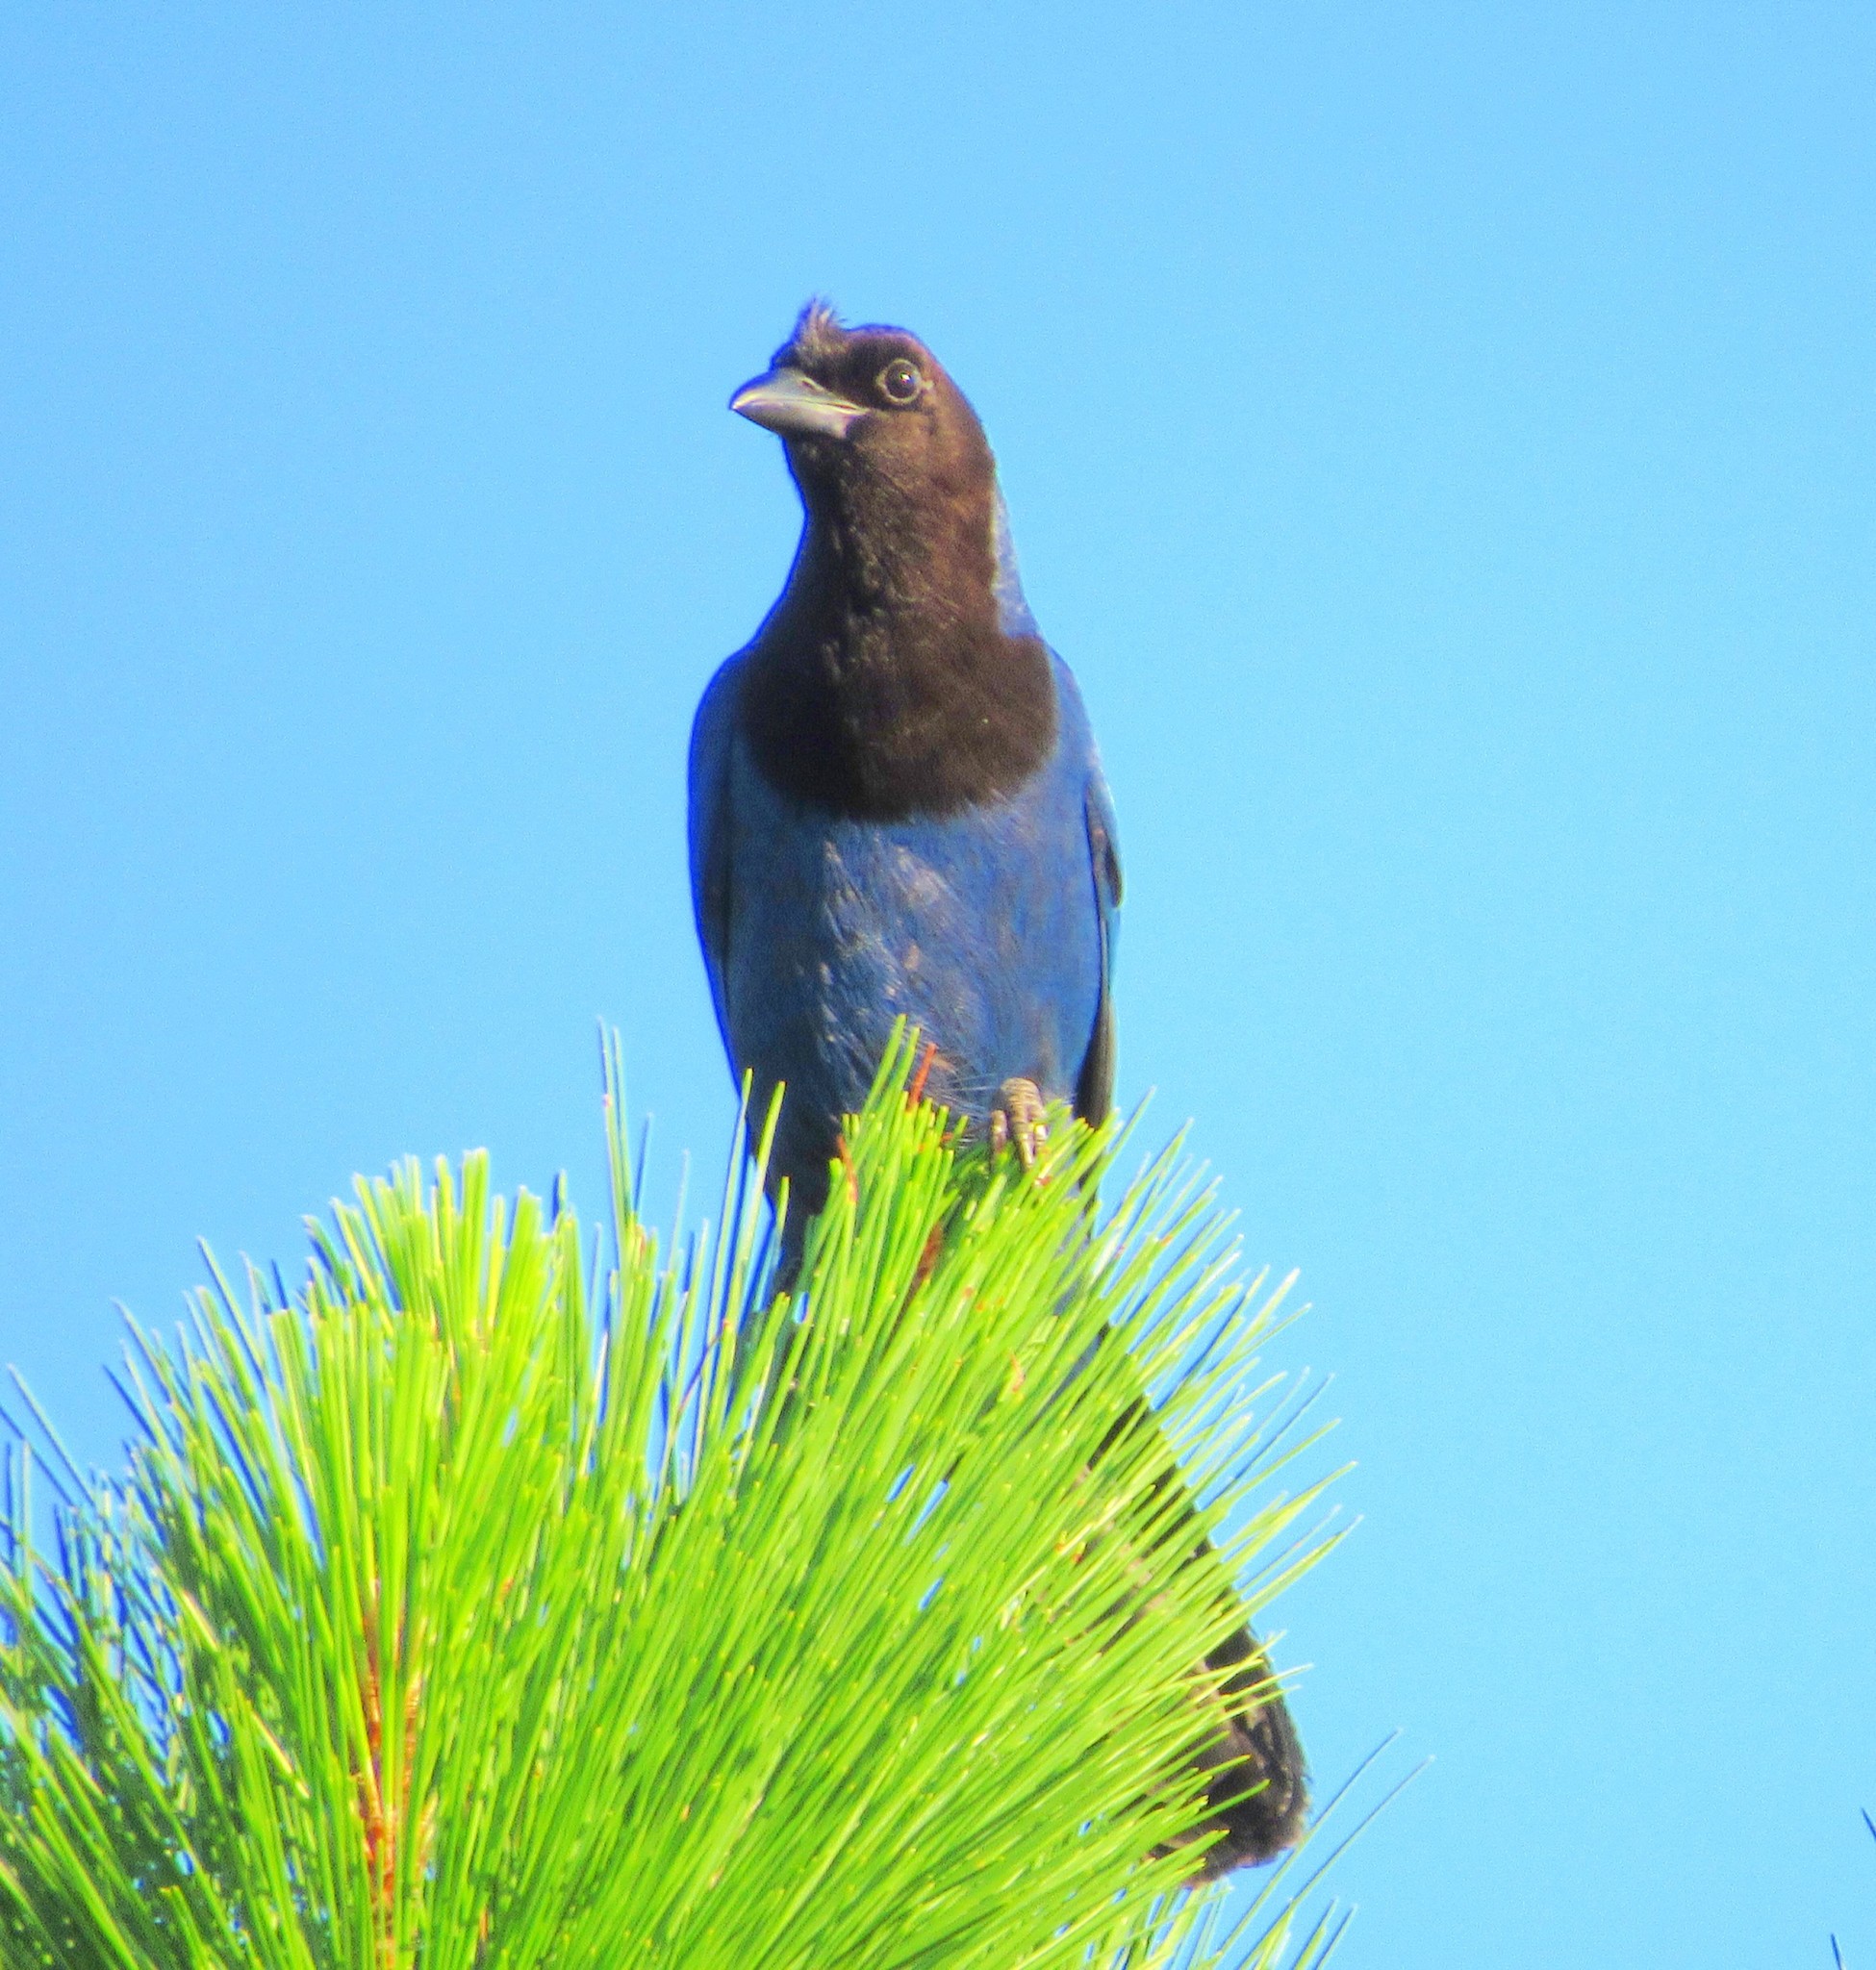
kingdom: Animalia
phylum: Chordata
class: Aves
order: Passeriformes
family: Corvidae
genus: Cyanocorax
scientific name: Cyanocorax caeruleus
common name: Azure jay
